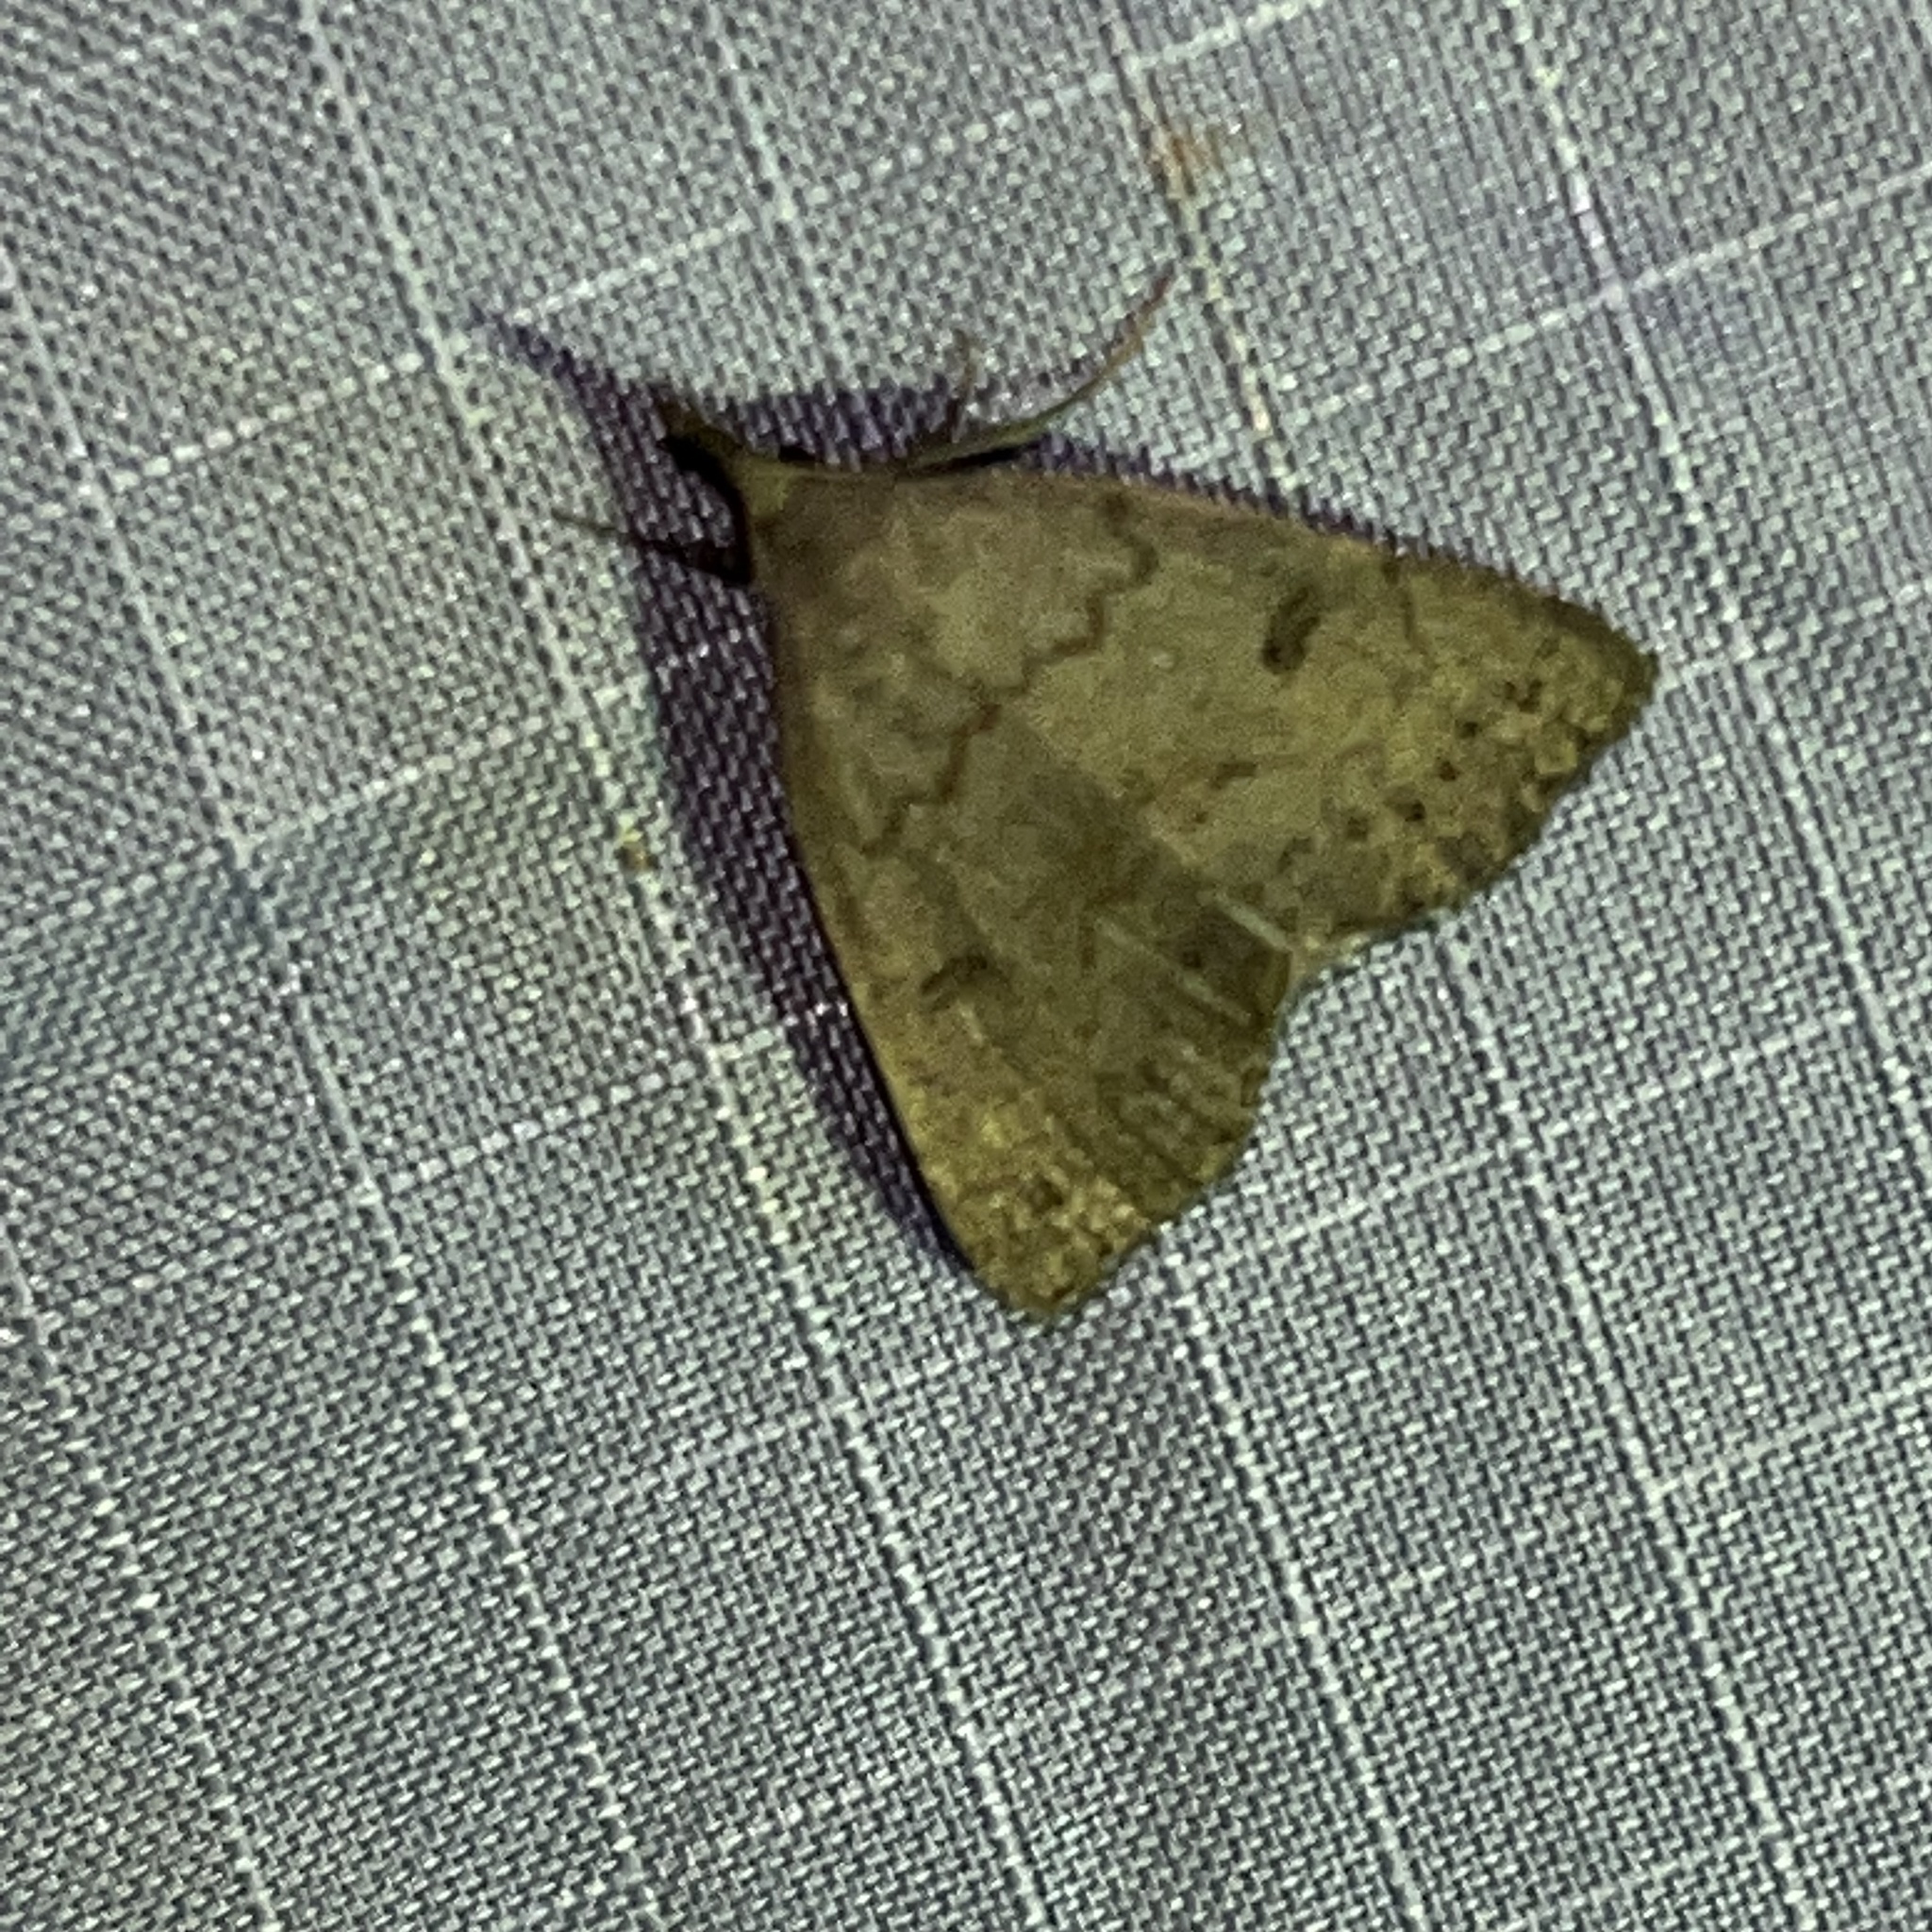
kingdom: Animalia
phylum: Arthropoda
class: Insecta
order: Lepidoptera
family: Erebidae
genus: Macrochilo
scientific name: Macrochilo morbidalis
